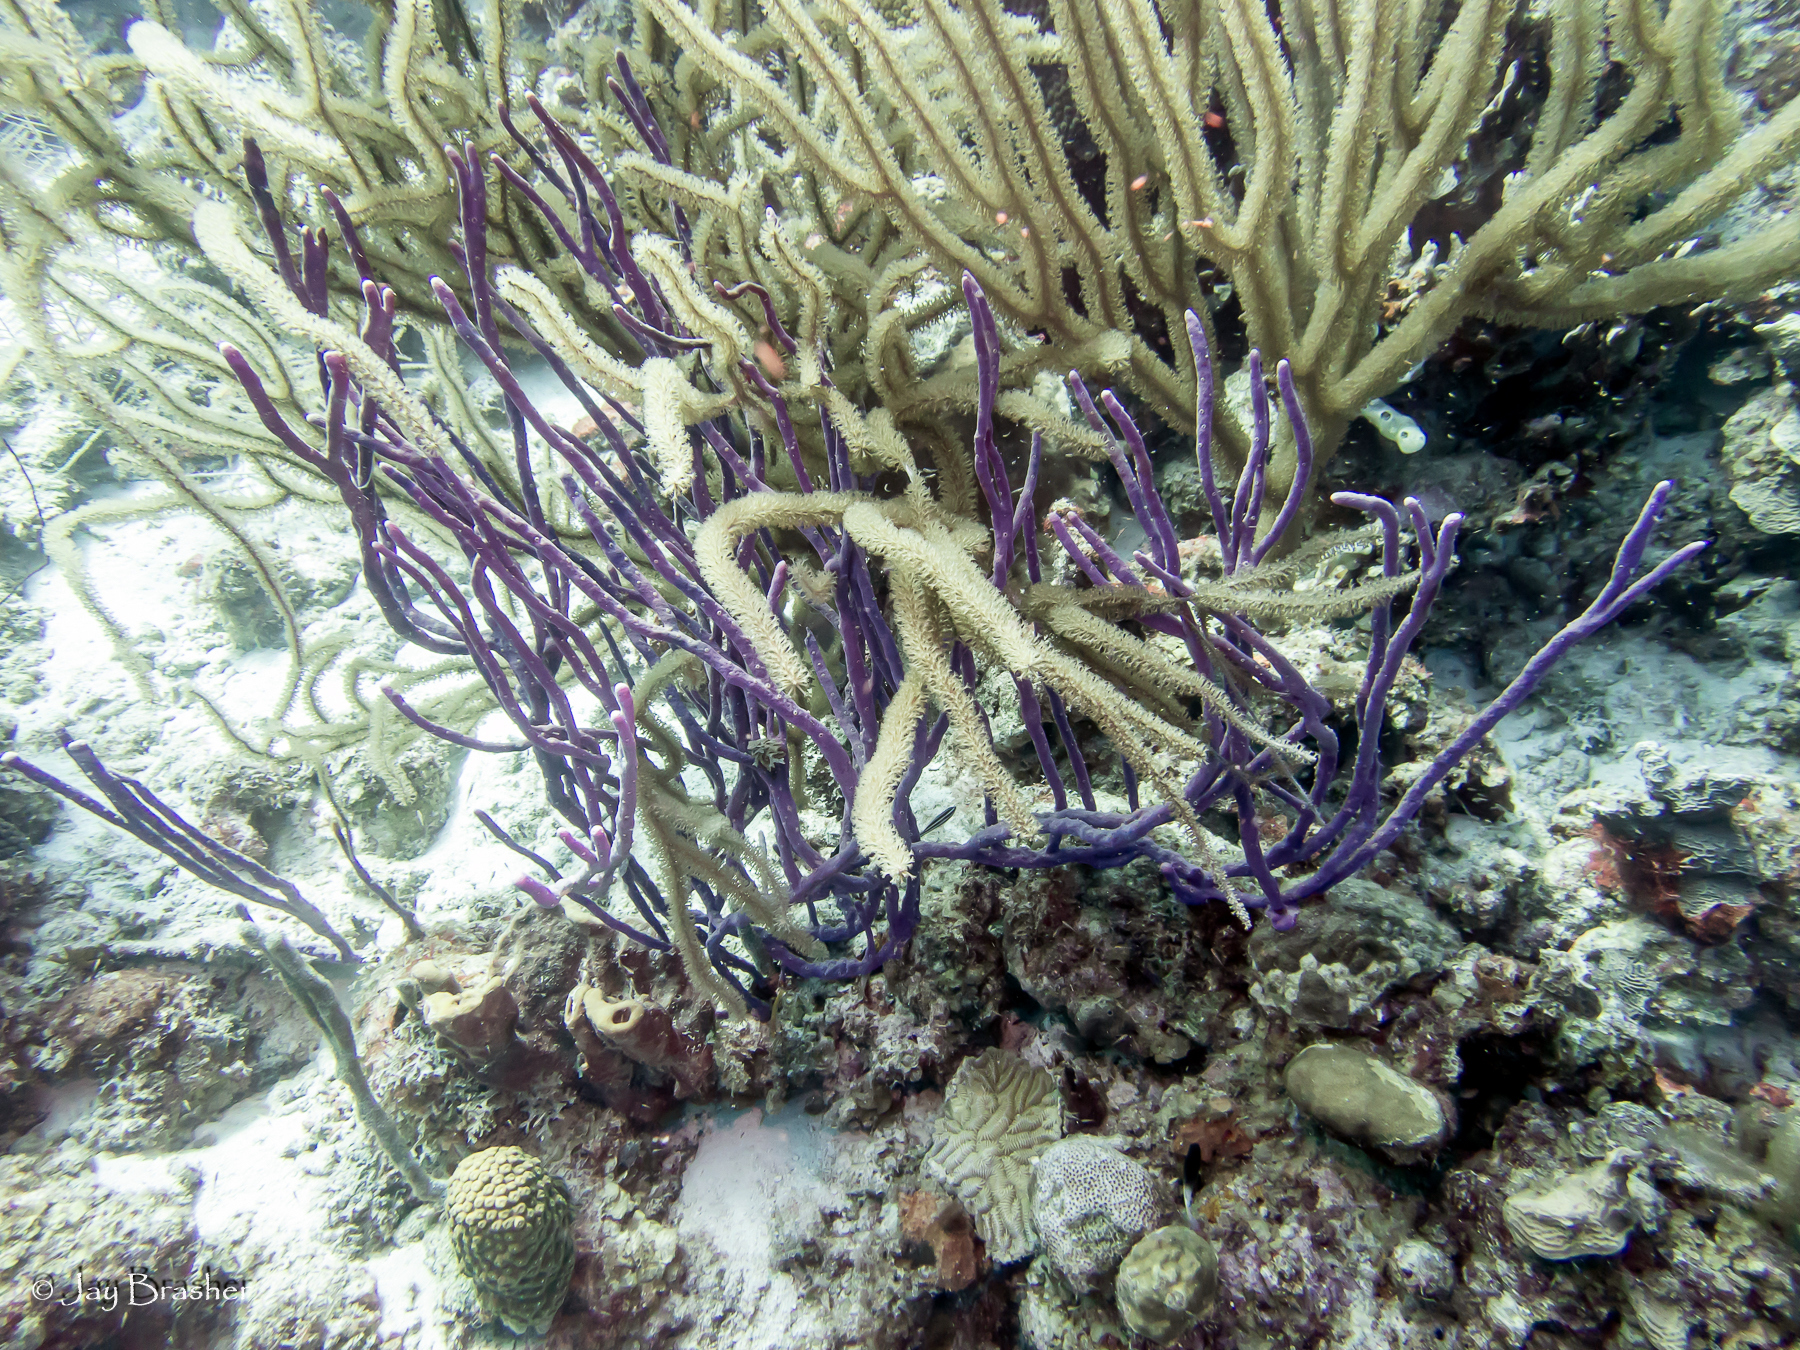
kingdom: Animalia
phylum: Porifera
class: Demospongiae
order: Verongiida
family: Aplysinidae
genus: Aplysina
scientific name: Aplysina cauliformis
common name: Branching candle sponge
